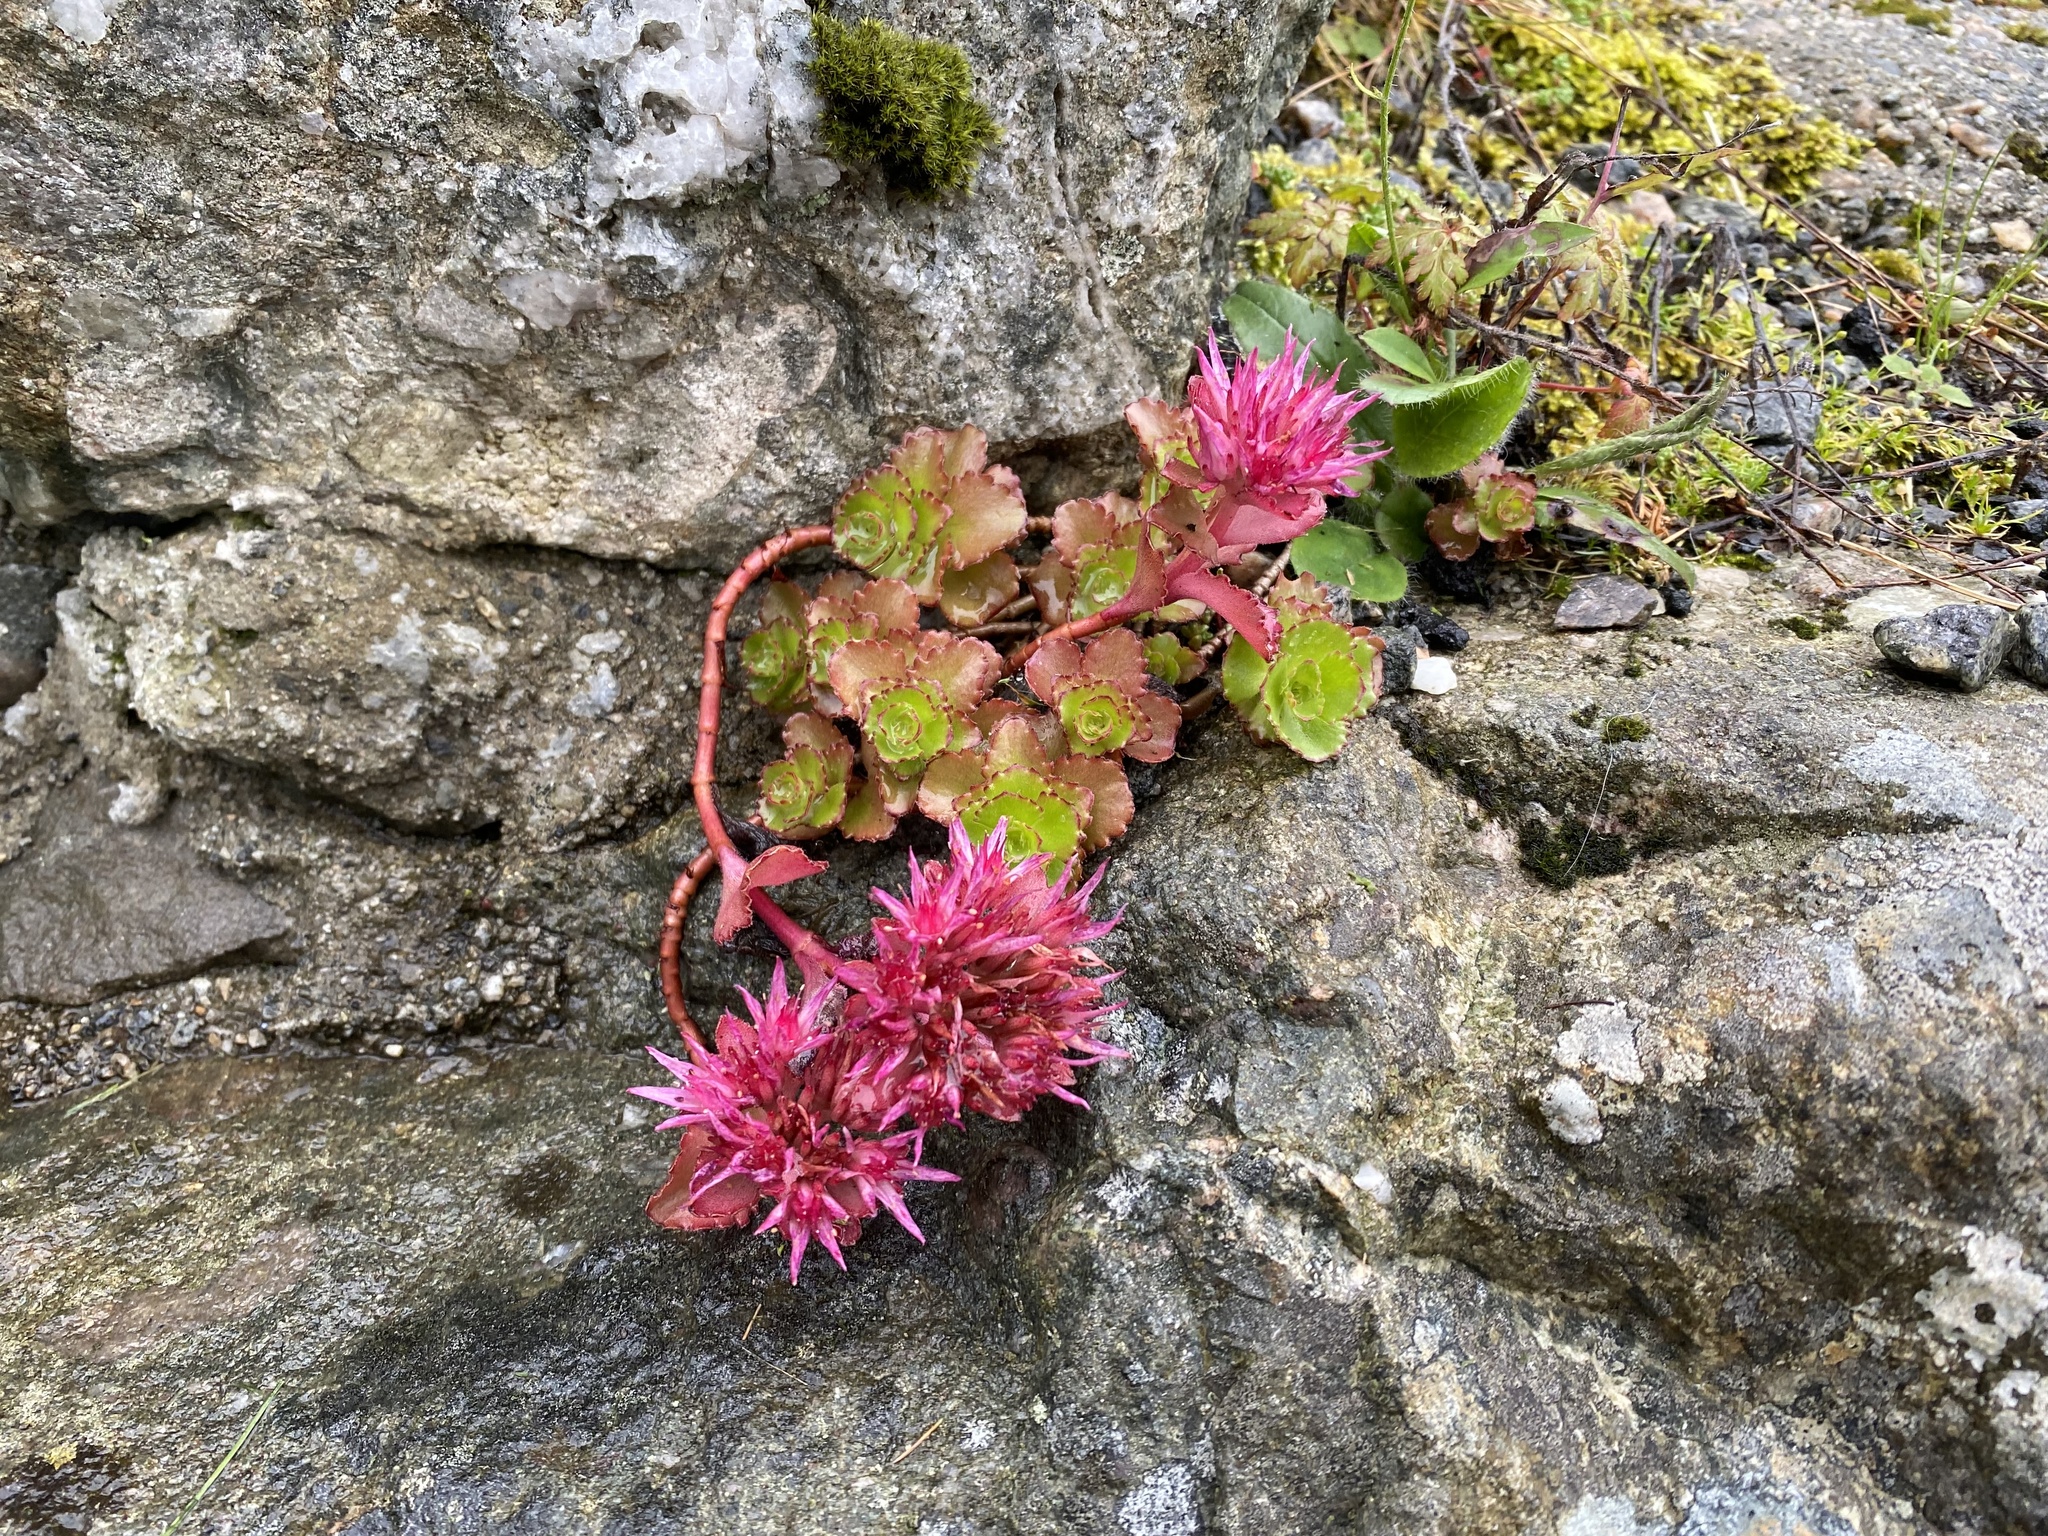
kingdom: Plantae
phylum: Tracheophyta
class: Magnoliopsida
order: Saxifragales
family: Crassulaceae
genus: Phedimus
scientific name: Phedimus spurius
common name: Caucasian stonecrop
